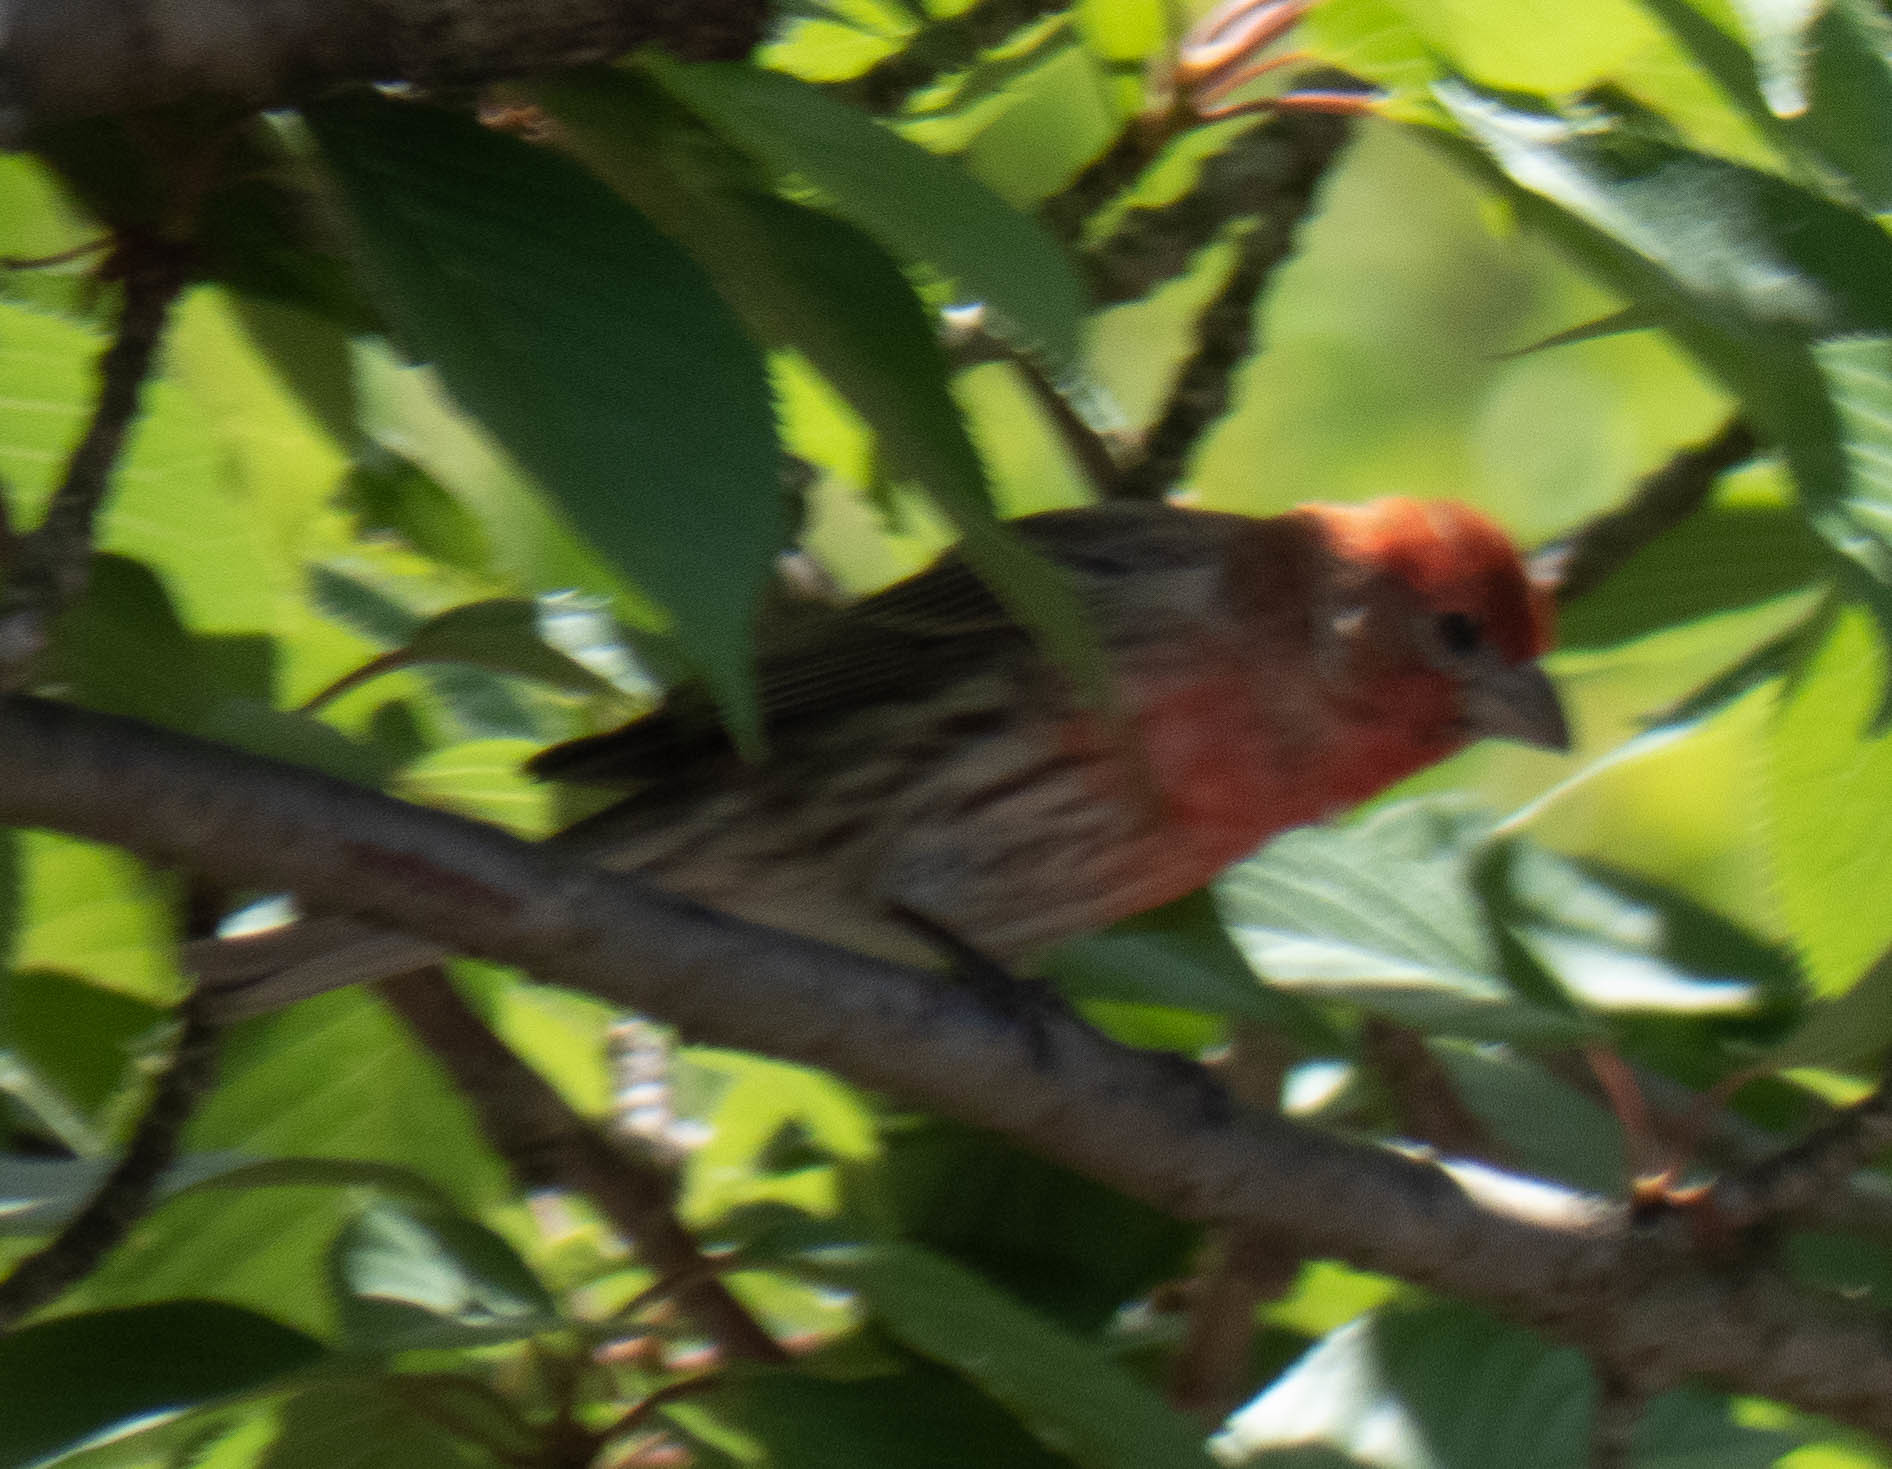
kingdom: Animalia
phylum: Chordata
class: Aves
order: Passeriformes
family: Fringillidae
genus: Haemorhous
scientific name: Haemorhous mexicanus
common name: House finch
